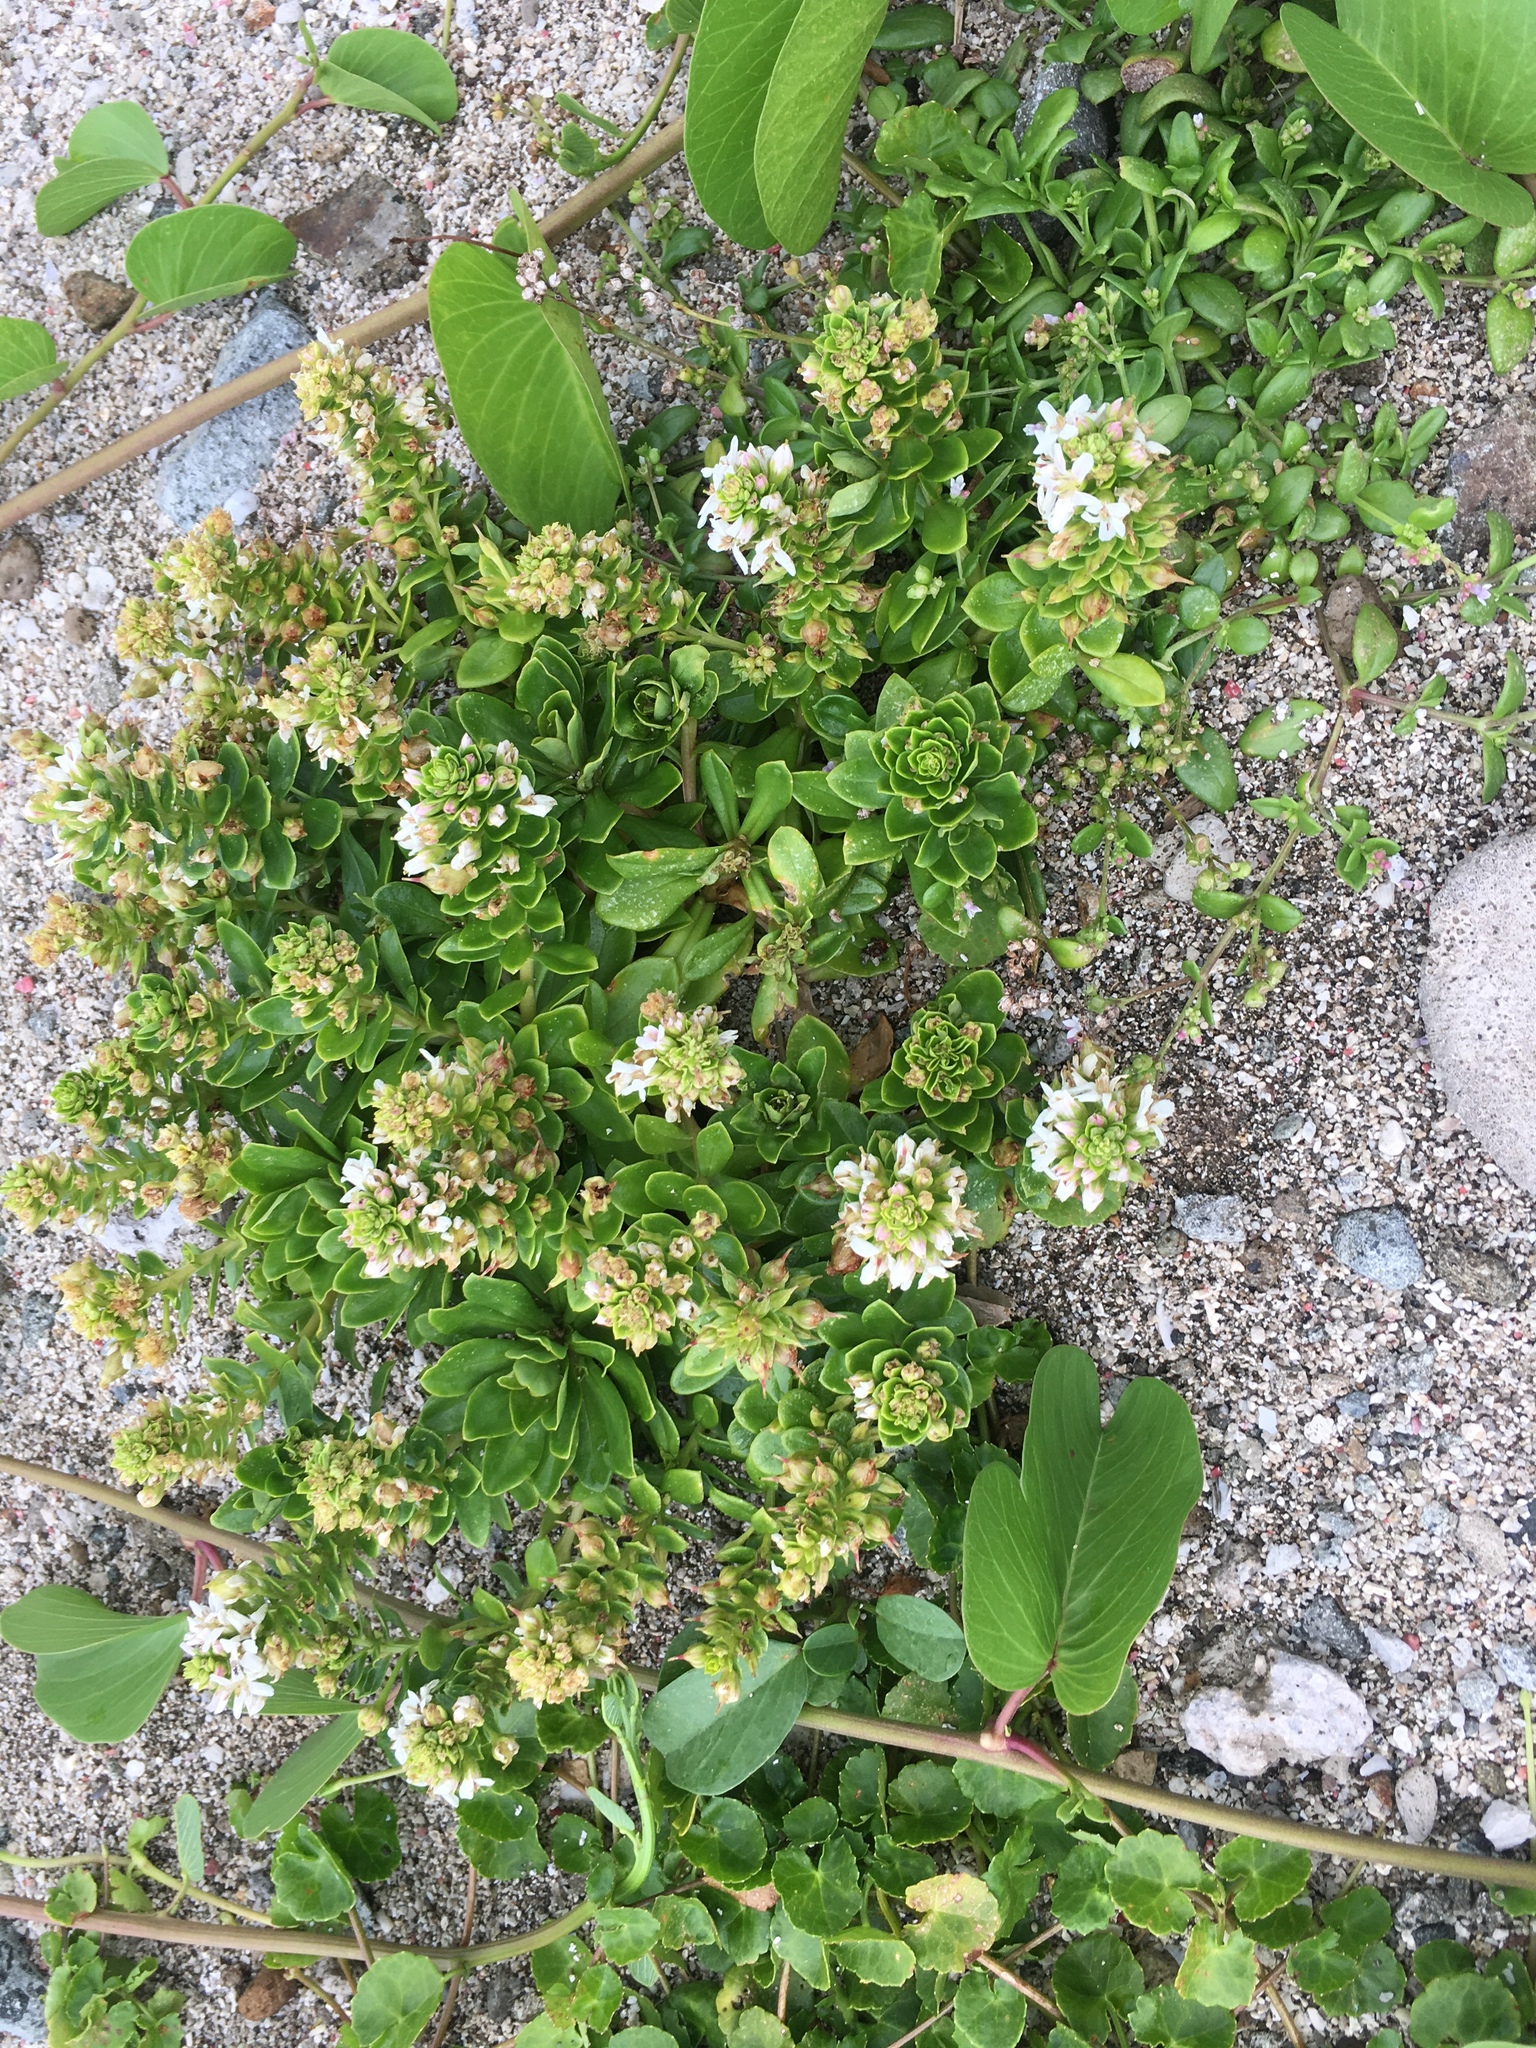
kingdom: Plantae
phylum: Tracheophyta
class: Magnoliopsida
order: Ericales
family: Primulaceae
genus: Lysimachia
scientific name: Lysimachia mauritiana
